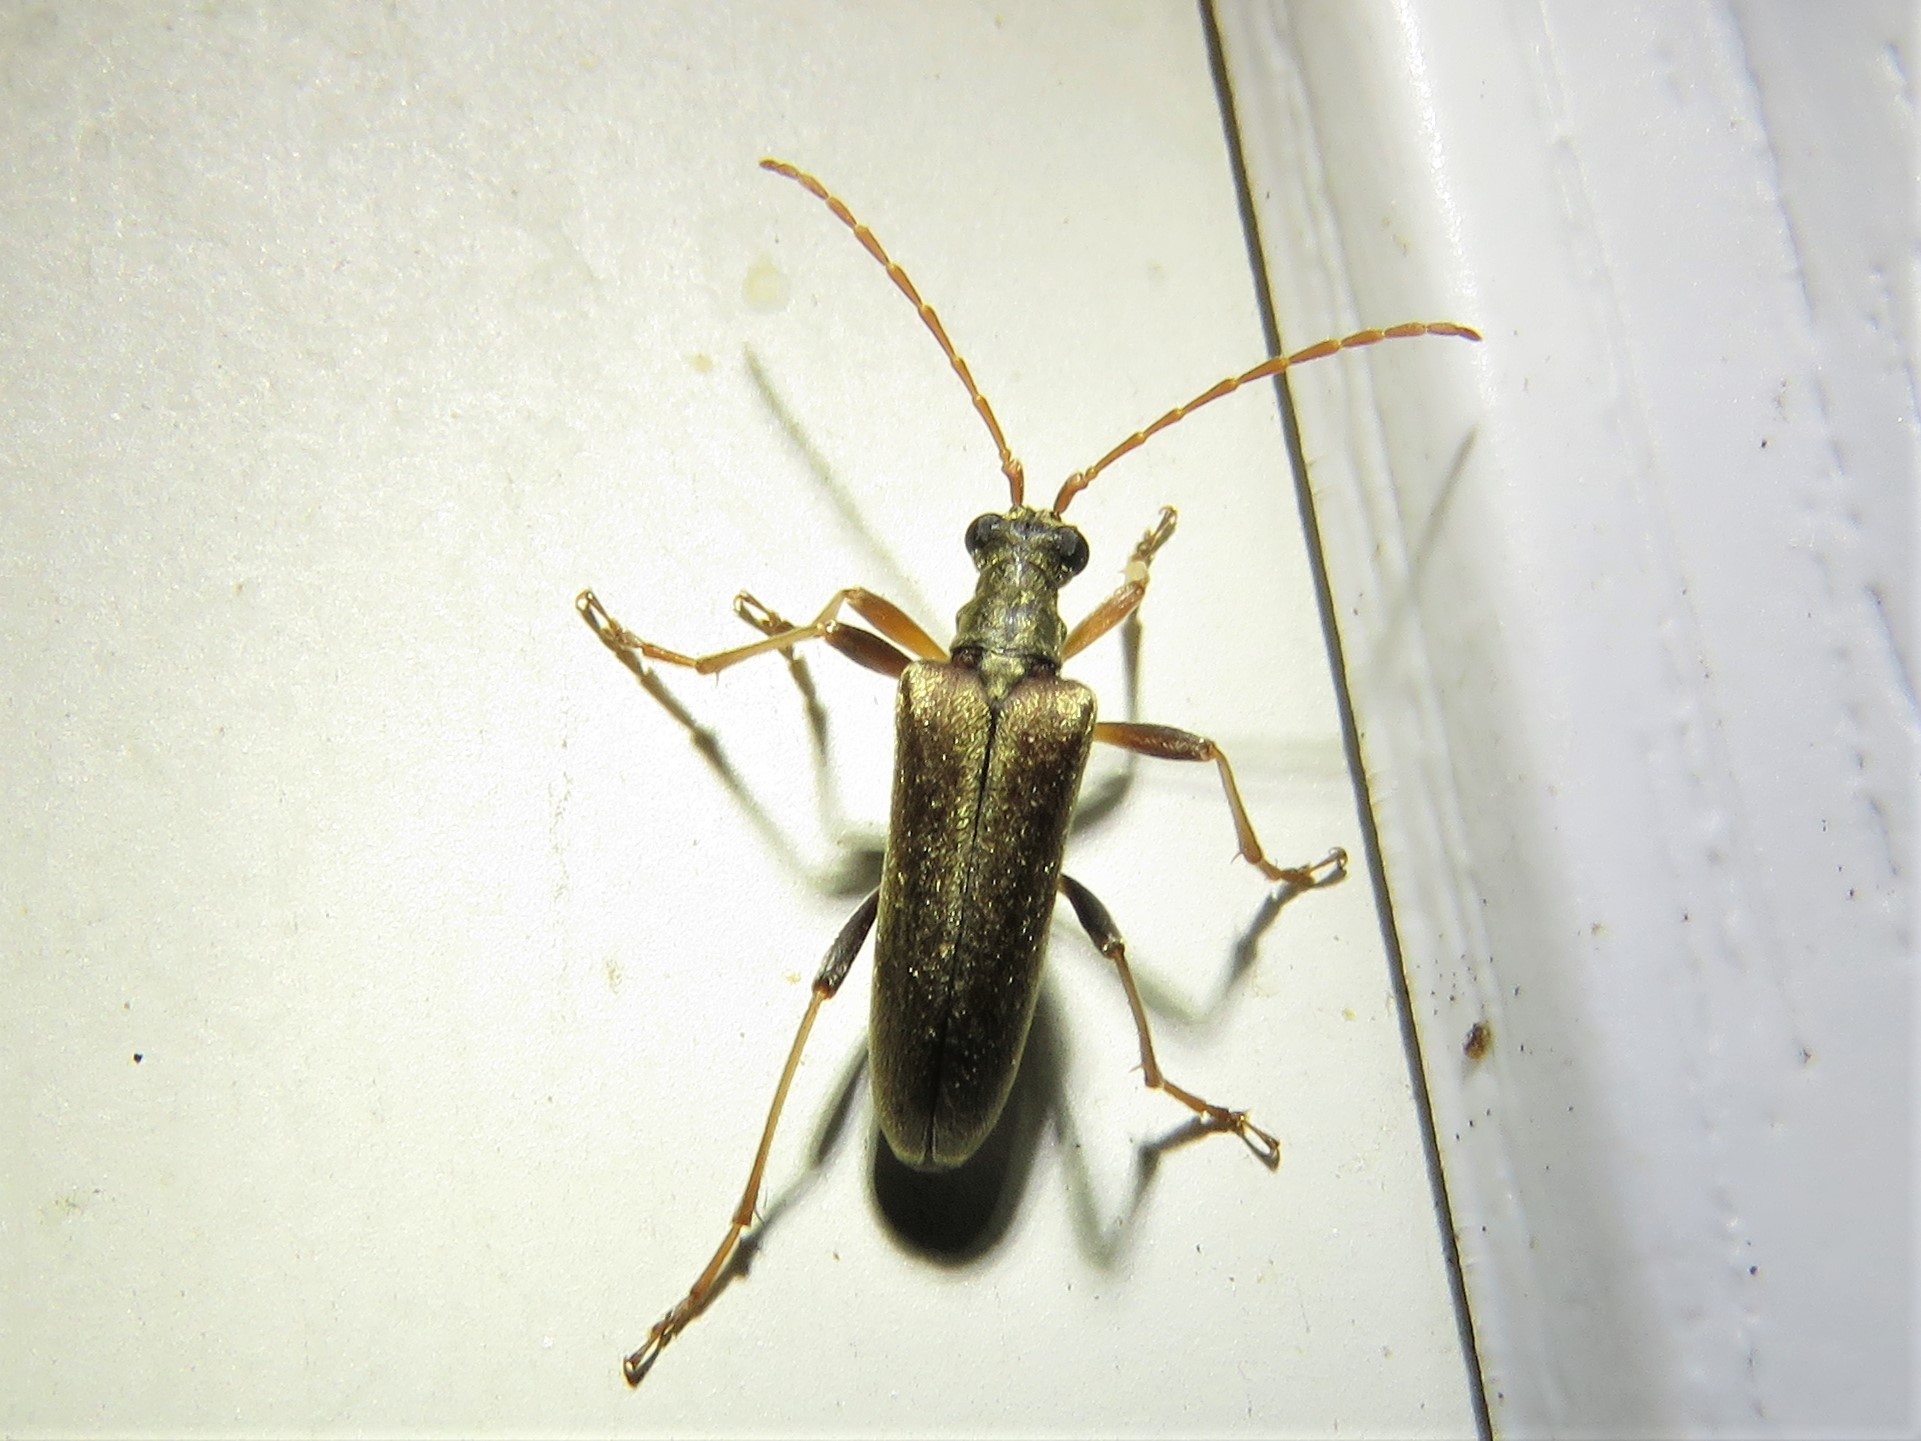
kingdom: Animalia
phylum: Arthropoda
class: Insecta
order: Coleoptera
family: Cerambycidae
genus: Stenocorus
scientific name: Stenocorus cinnamopterus
